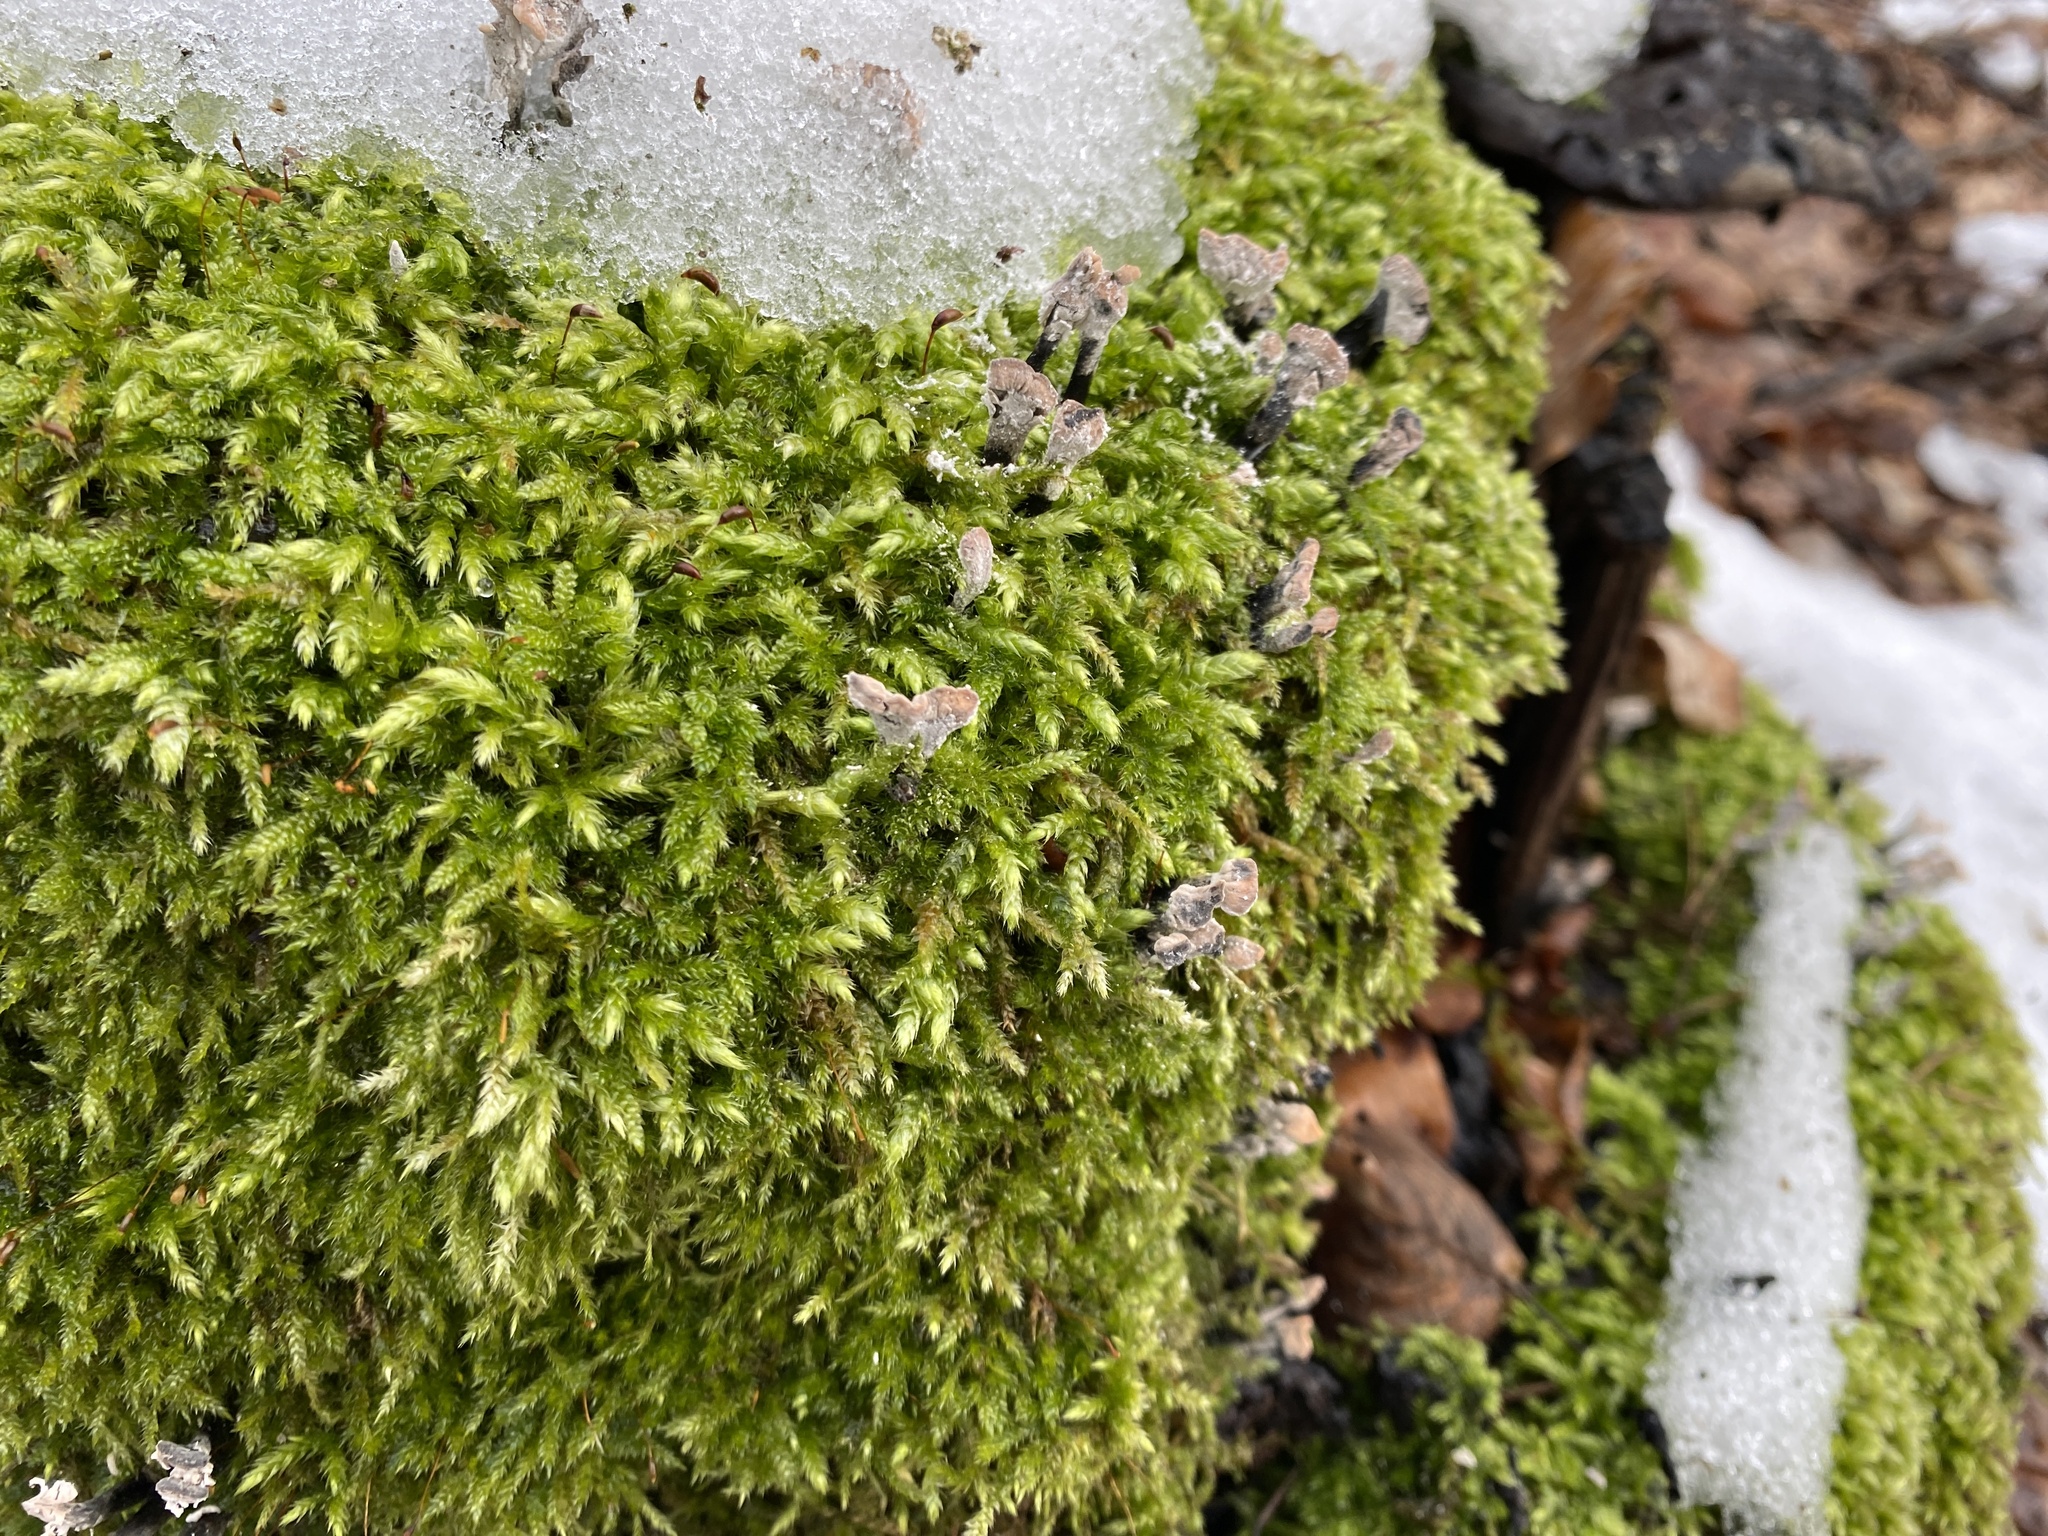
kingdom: Fungi
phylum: Ascomycota
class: Sordariomycetes
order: Xylariales
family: Xylariaceae
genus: Xylaria
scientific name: Xylaria hypoxylon
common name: Candle-snuff fungus
